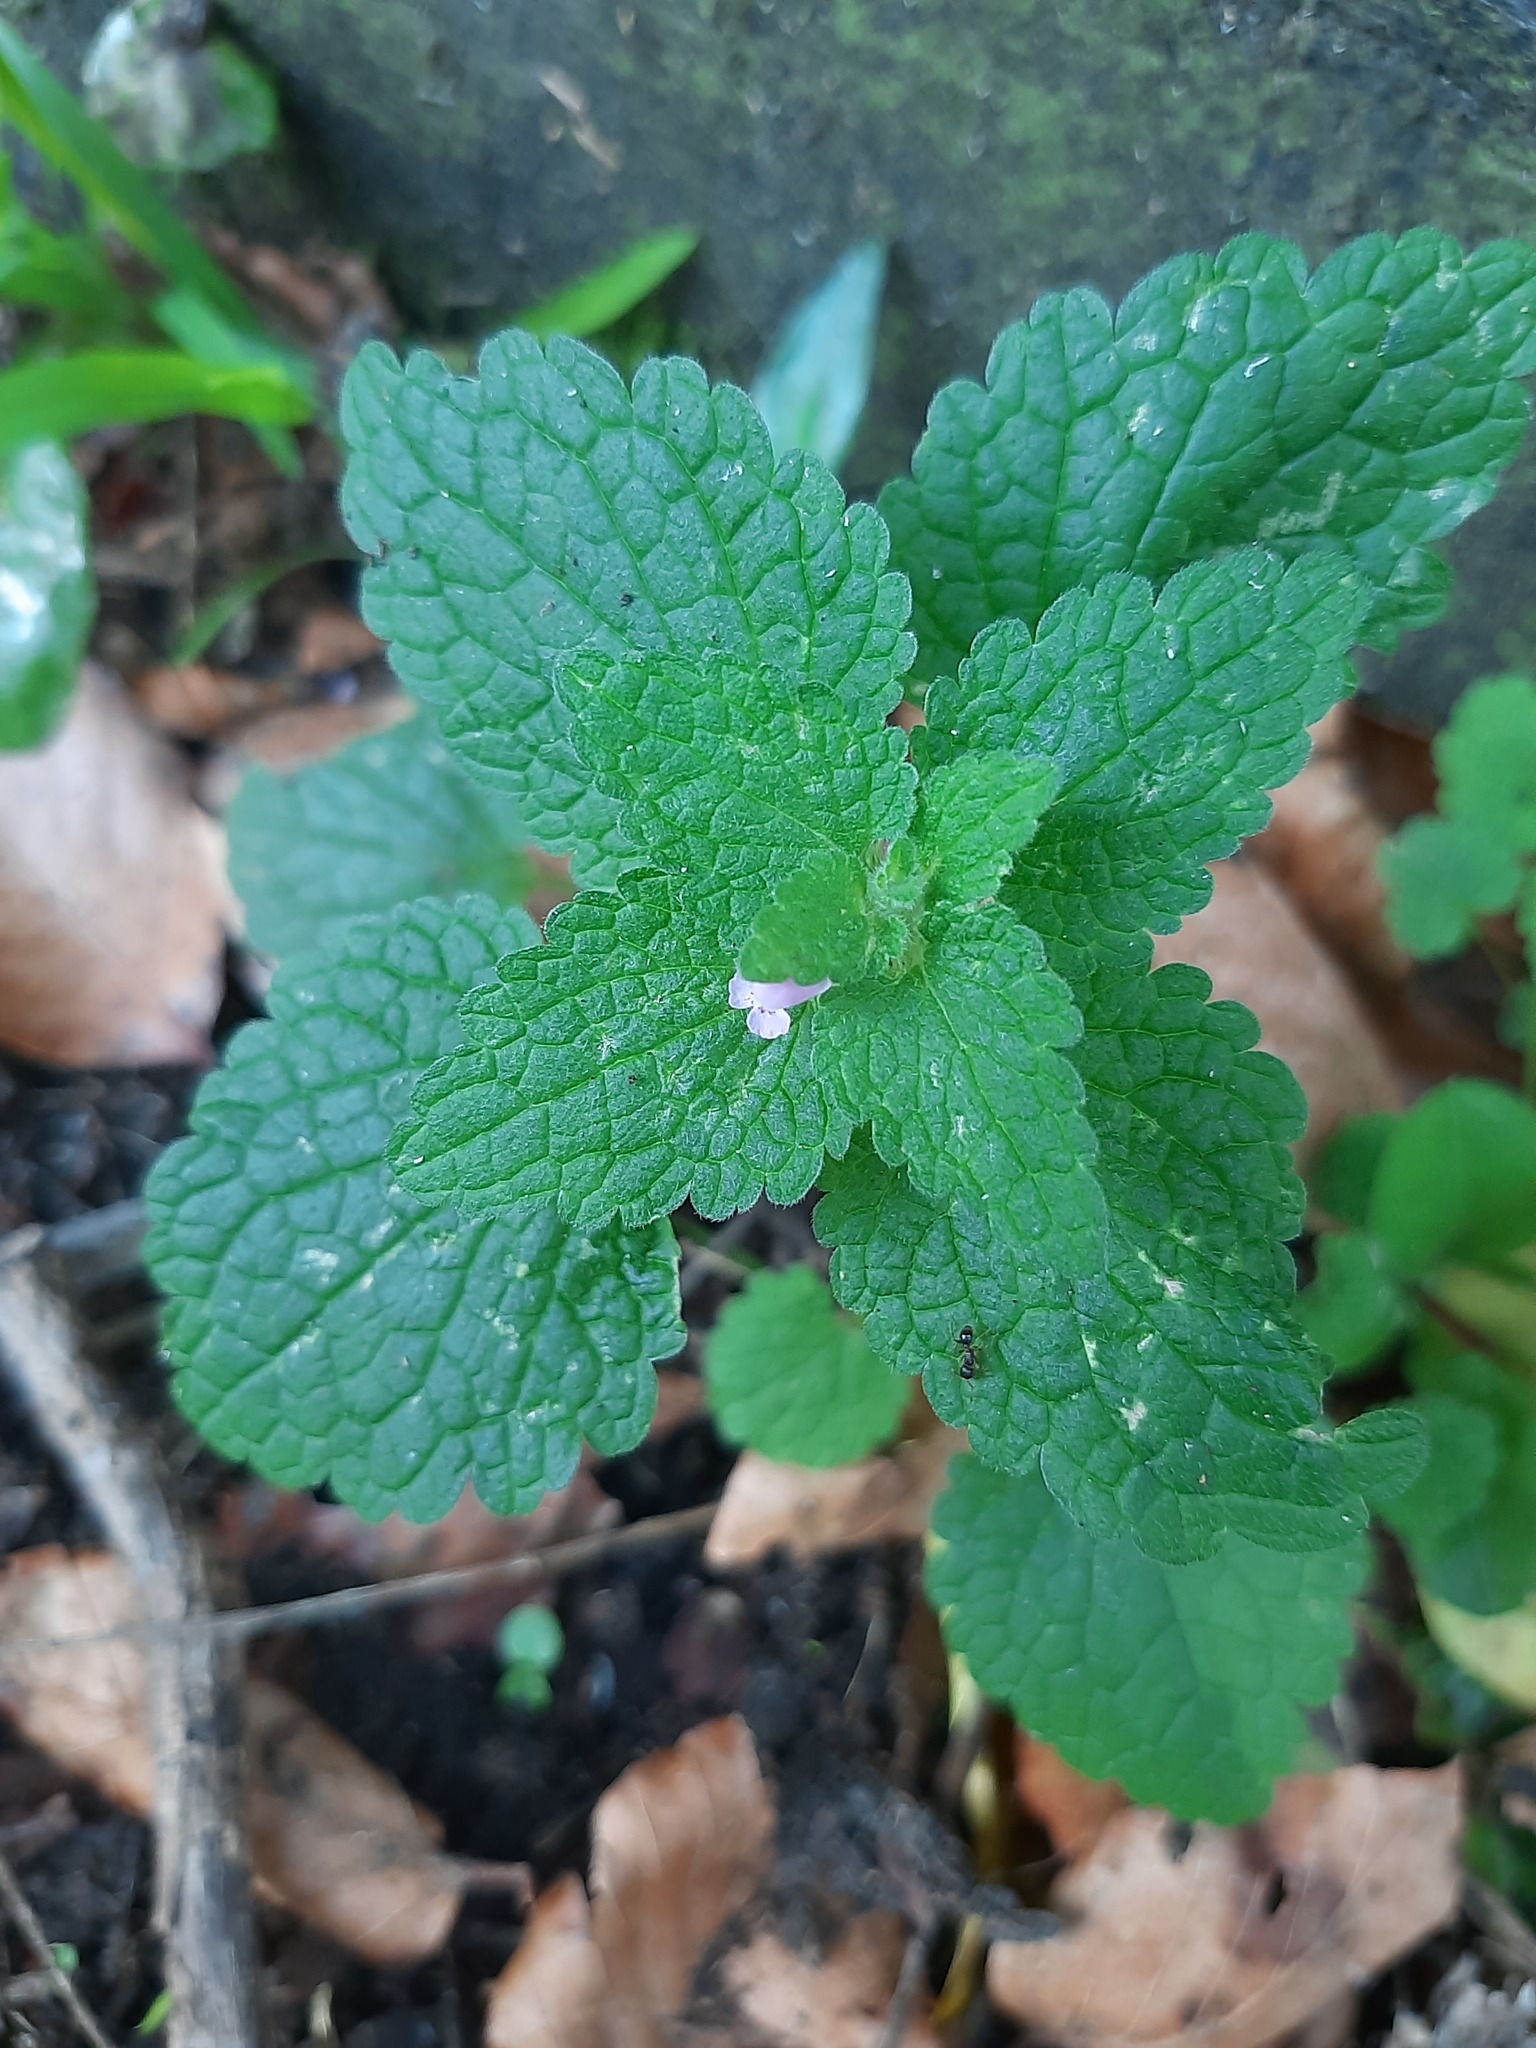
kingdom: Plantae
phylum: Tracheophyta
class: Magnoliopsida
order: Lamiales
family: Lamiaceae
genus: Lamium
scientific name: Lamium purpureum
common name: Red dead-nettle
